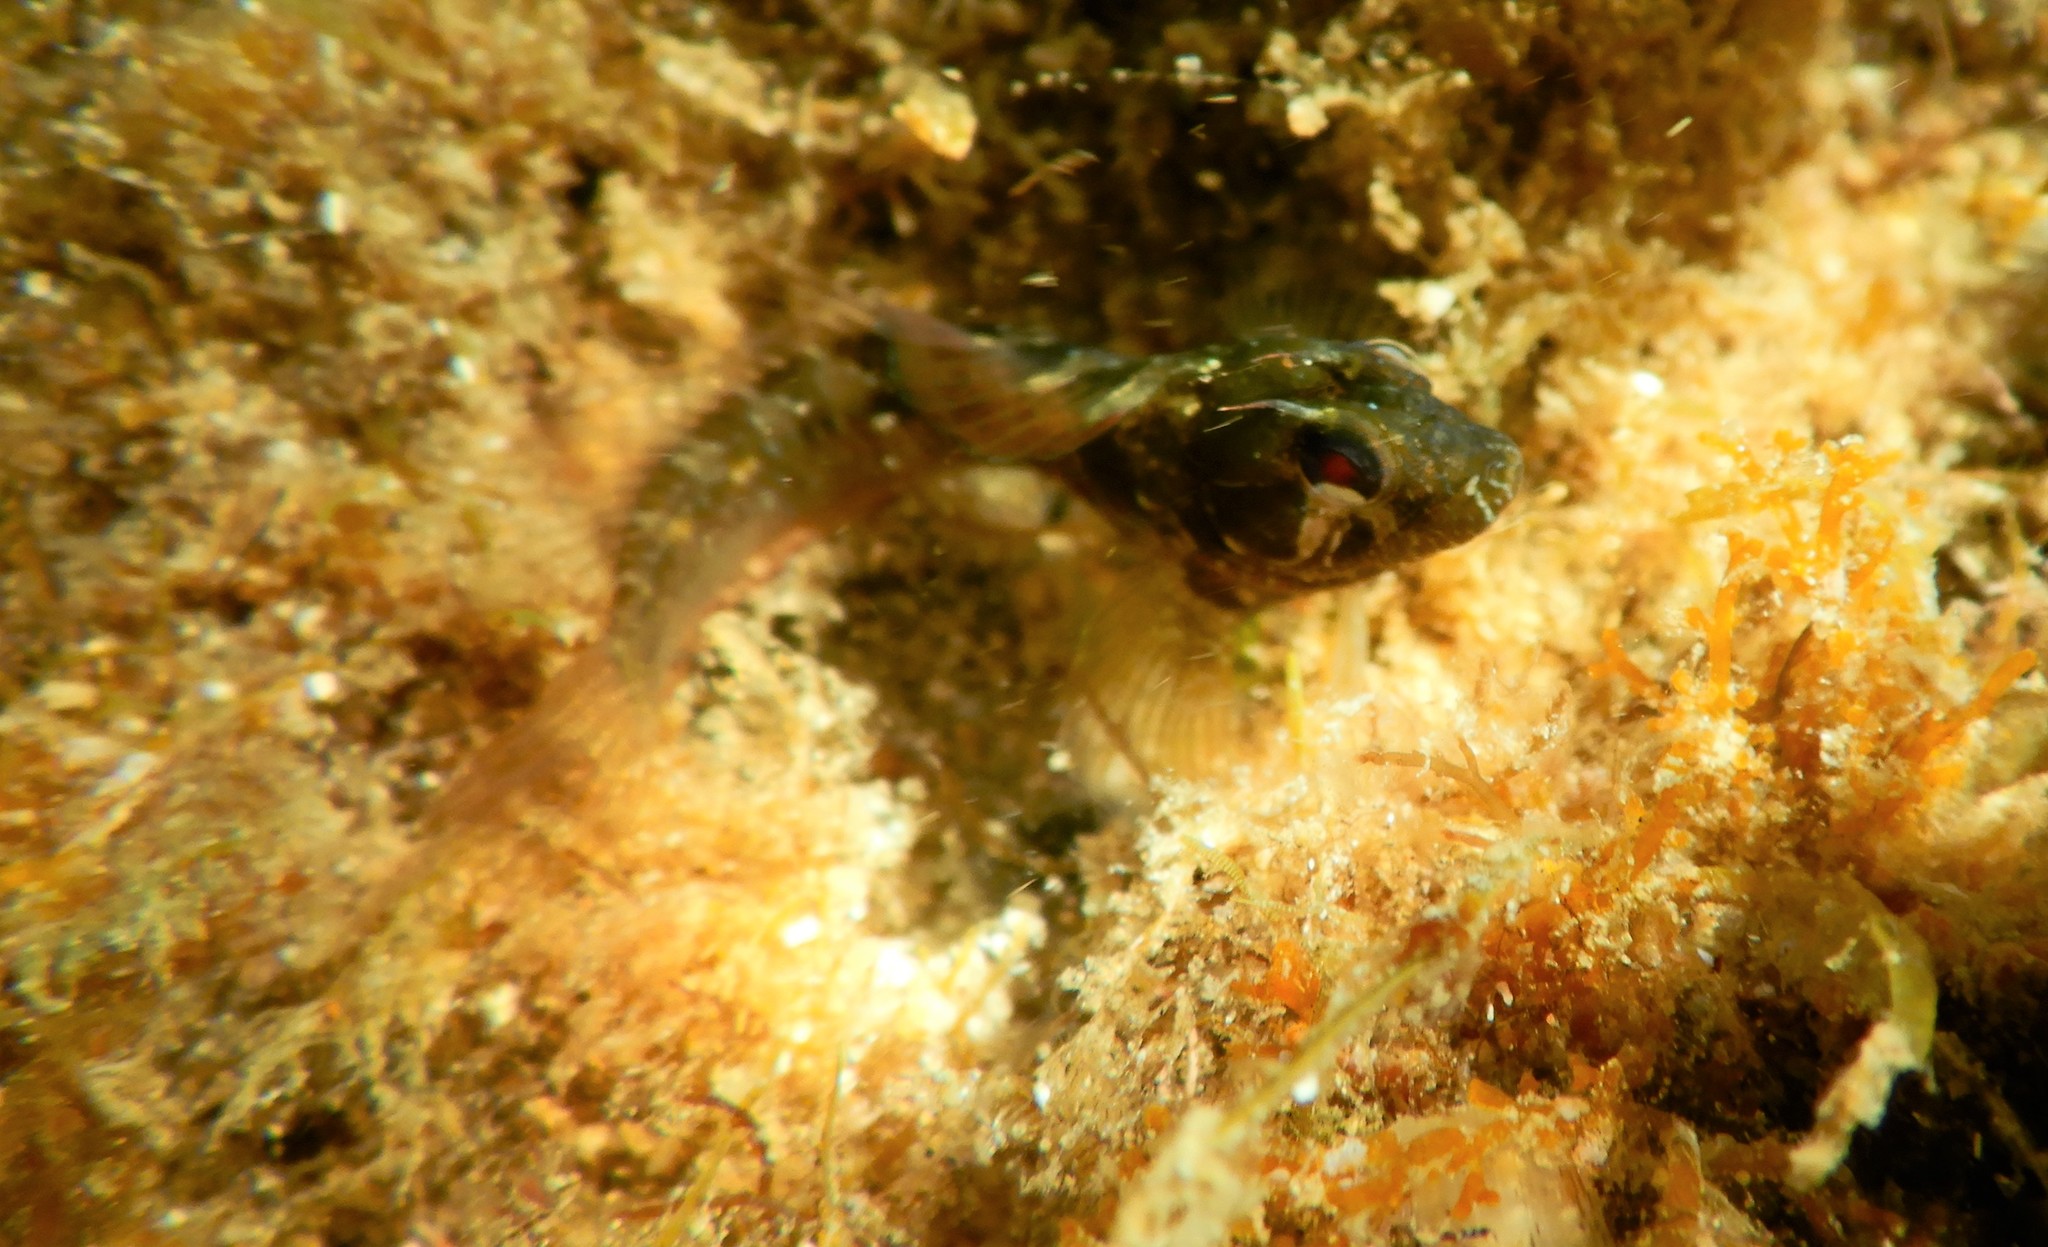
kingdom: Animalia
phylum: Chordata
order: Perciformes
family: Blenniidae
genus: Parablennius
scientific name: Parablennius incognitus
